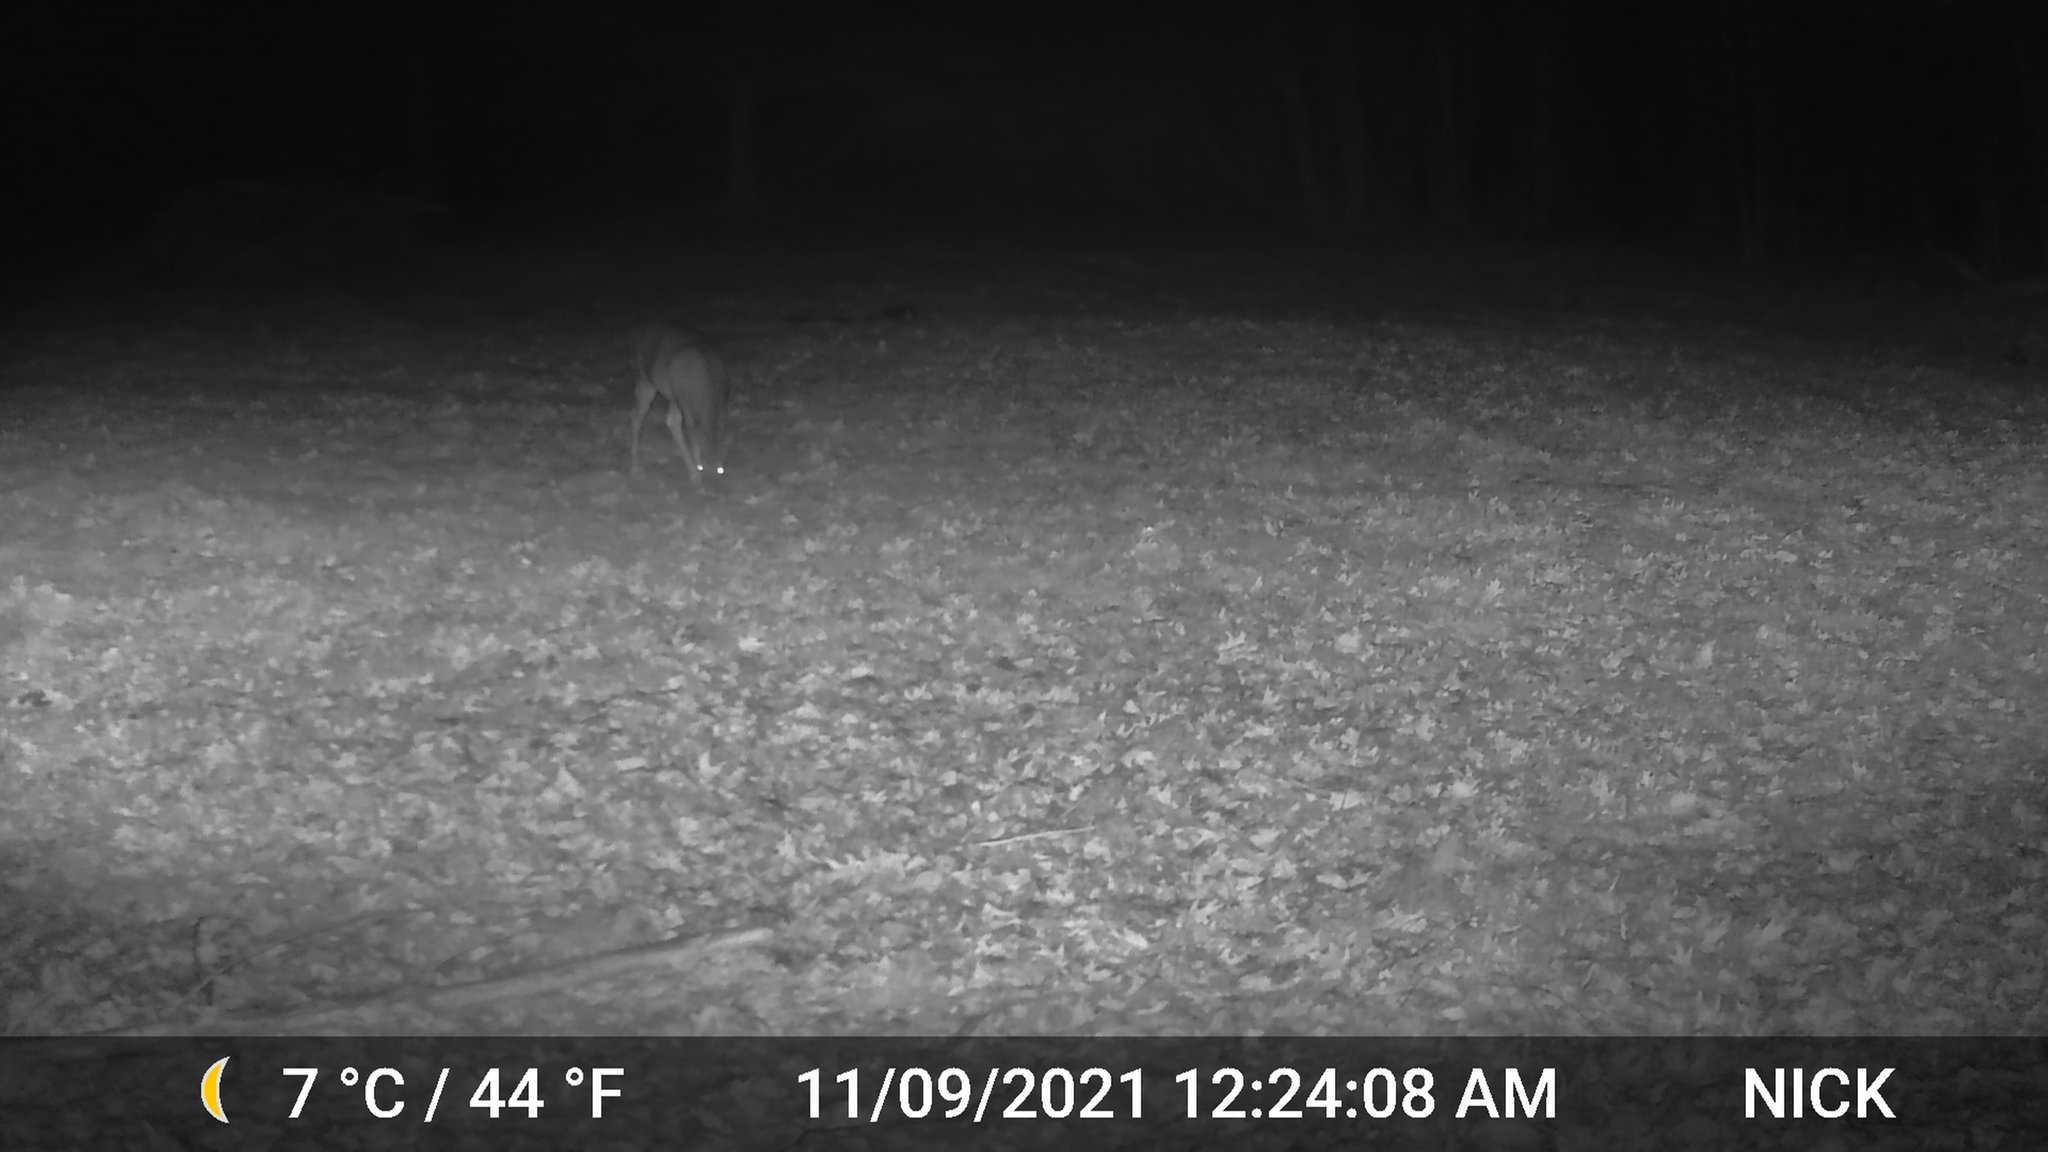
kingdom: Animalia
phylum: Chordata
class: Mammalia
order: Artiodactyla
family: Cervidae
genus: Odocoileus
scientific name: Odocoileus virginianus
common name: White-tailed deer
